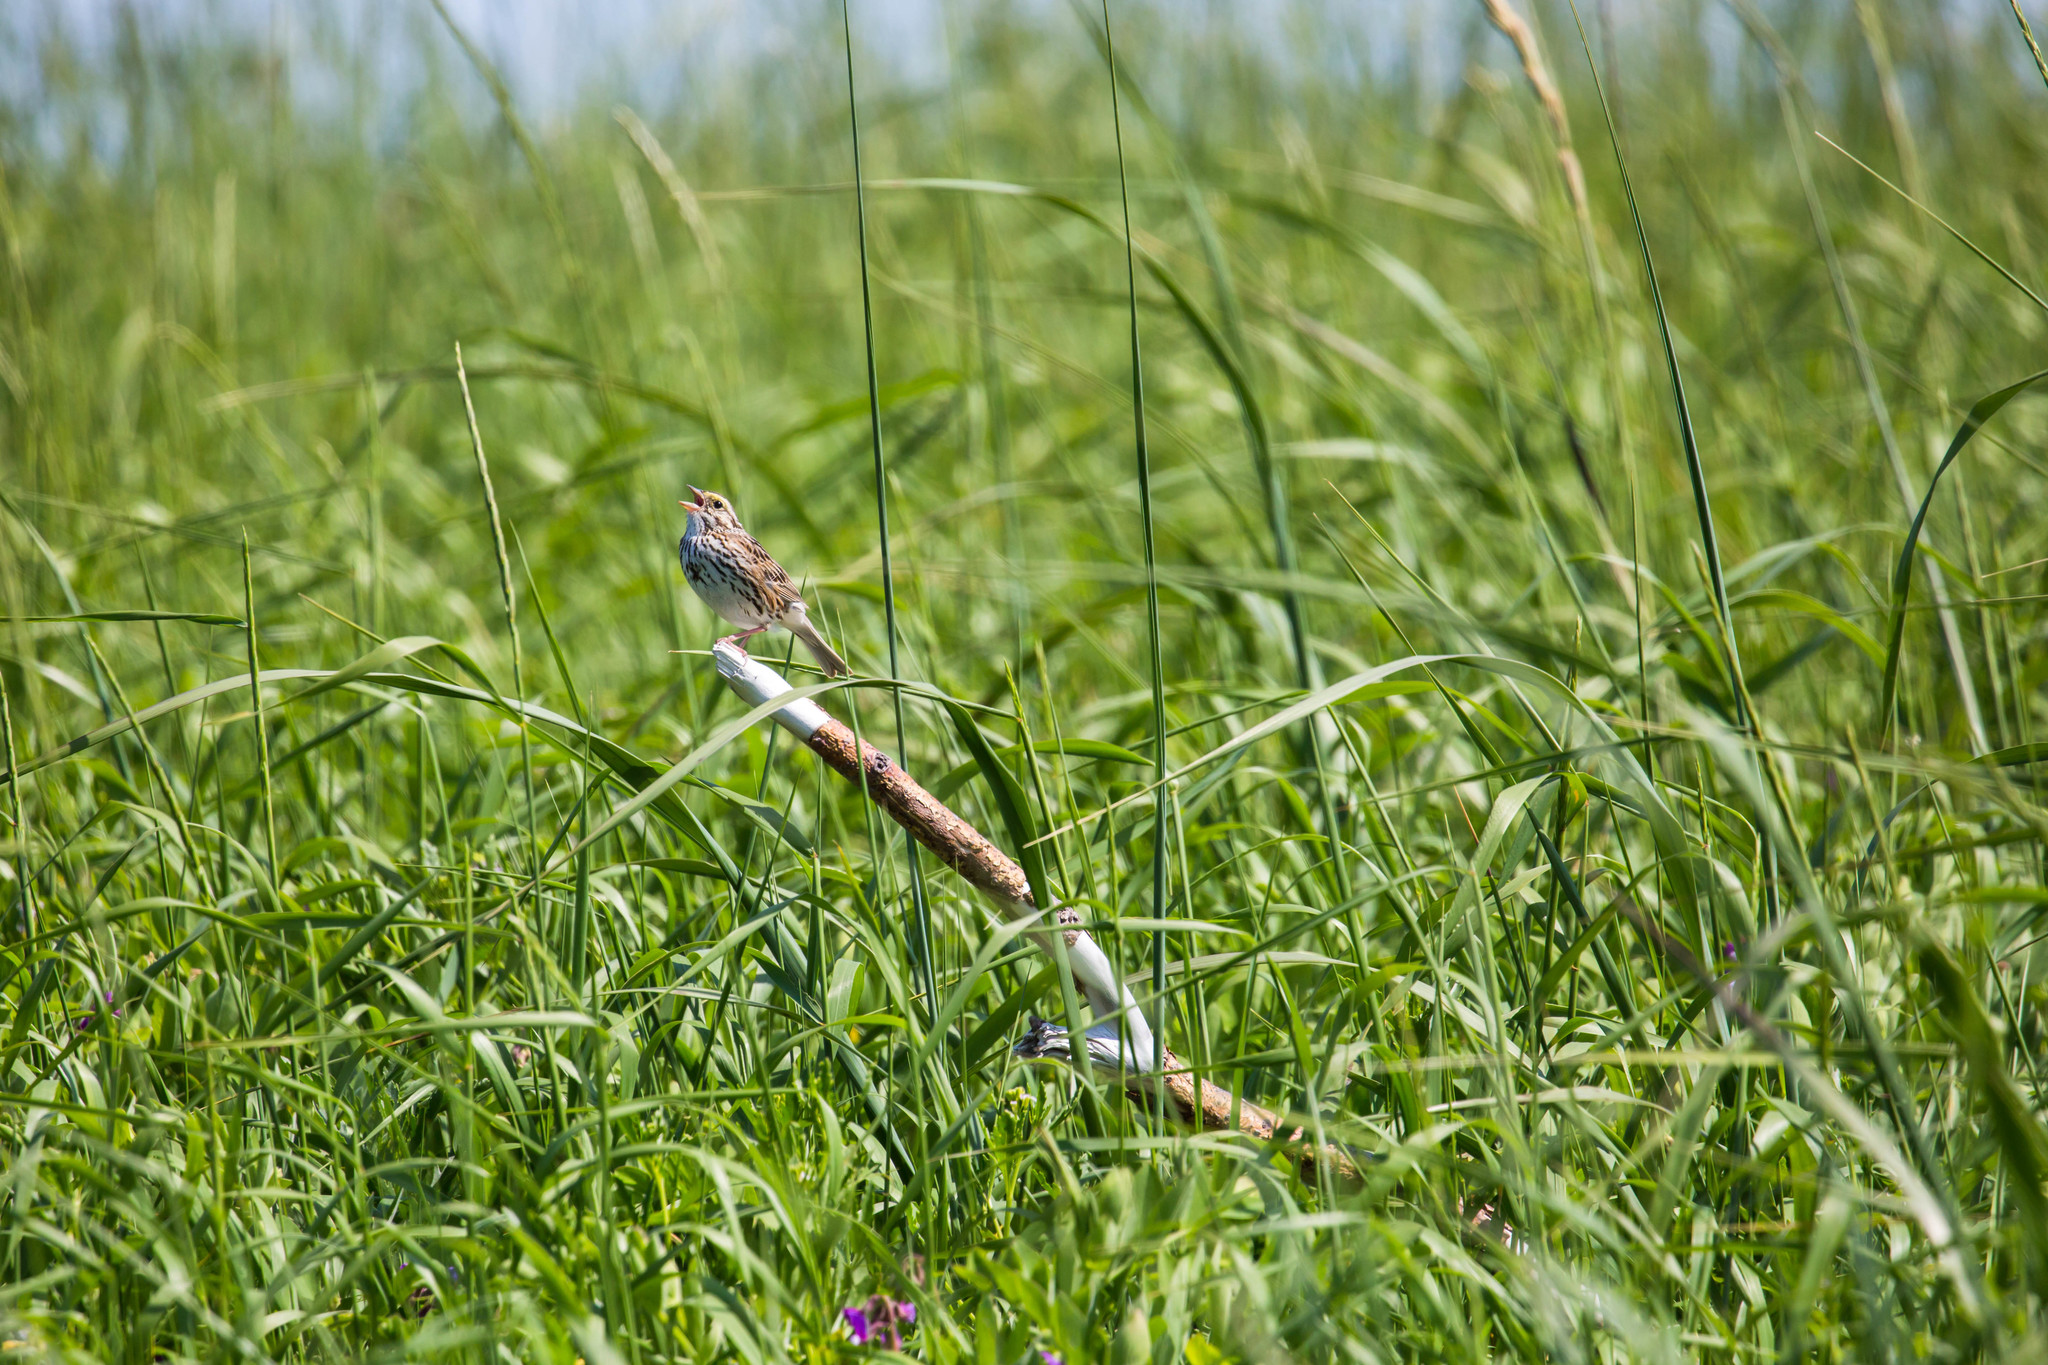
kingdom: Animalia
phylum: Chordata
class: Aves
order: Passeriformes
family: Passerellidae
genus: Passerculus
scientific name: Passerculus sandwichensis
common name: Savannah sparrow
